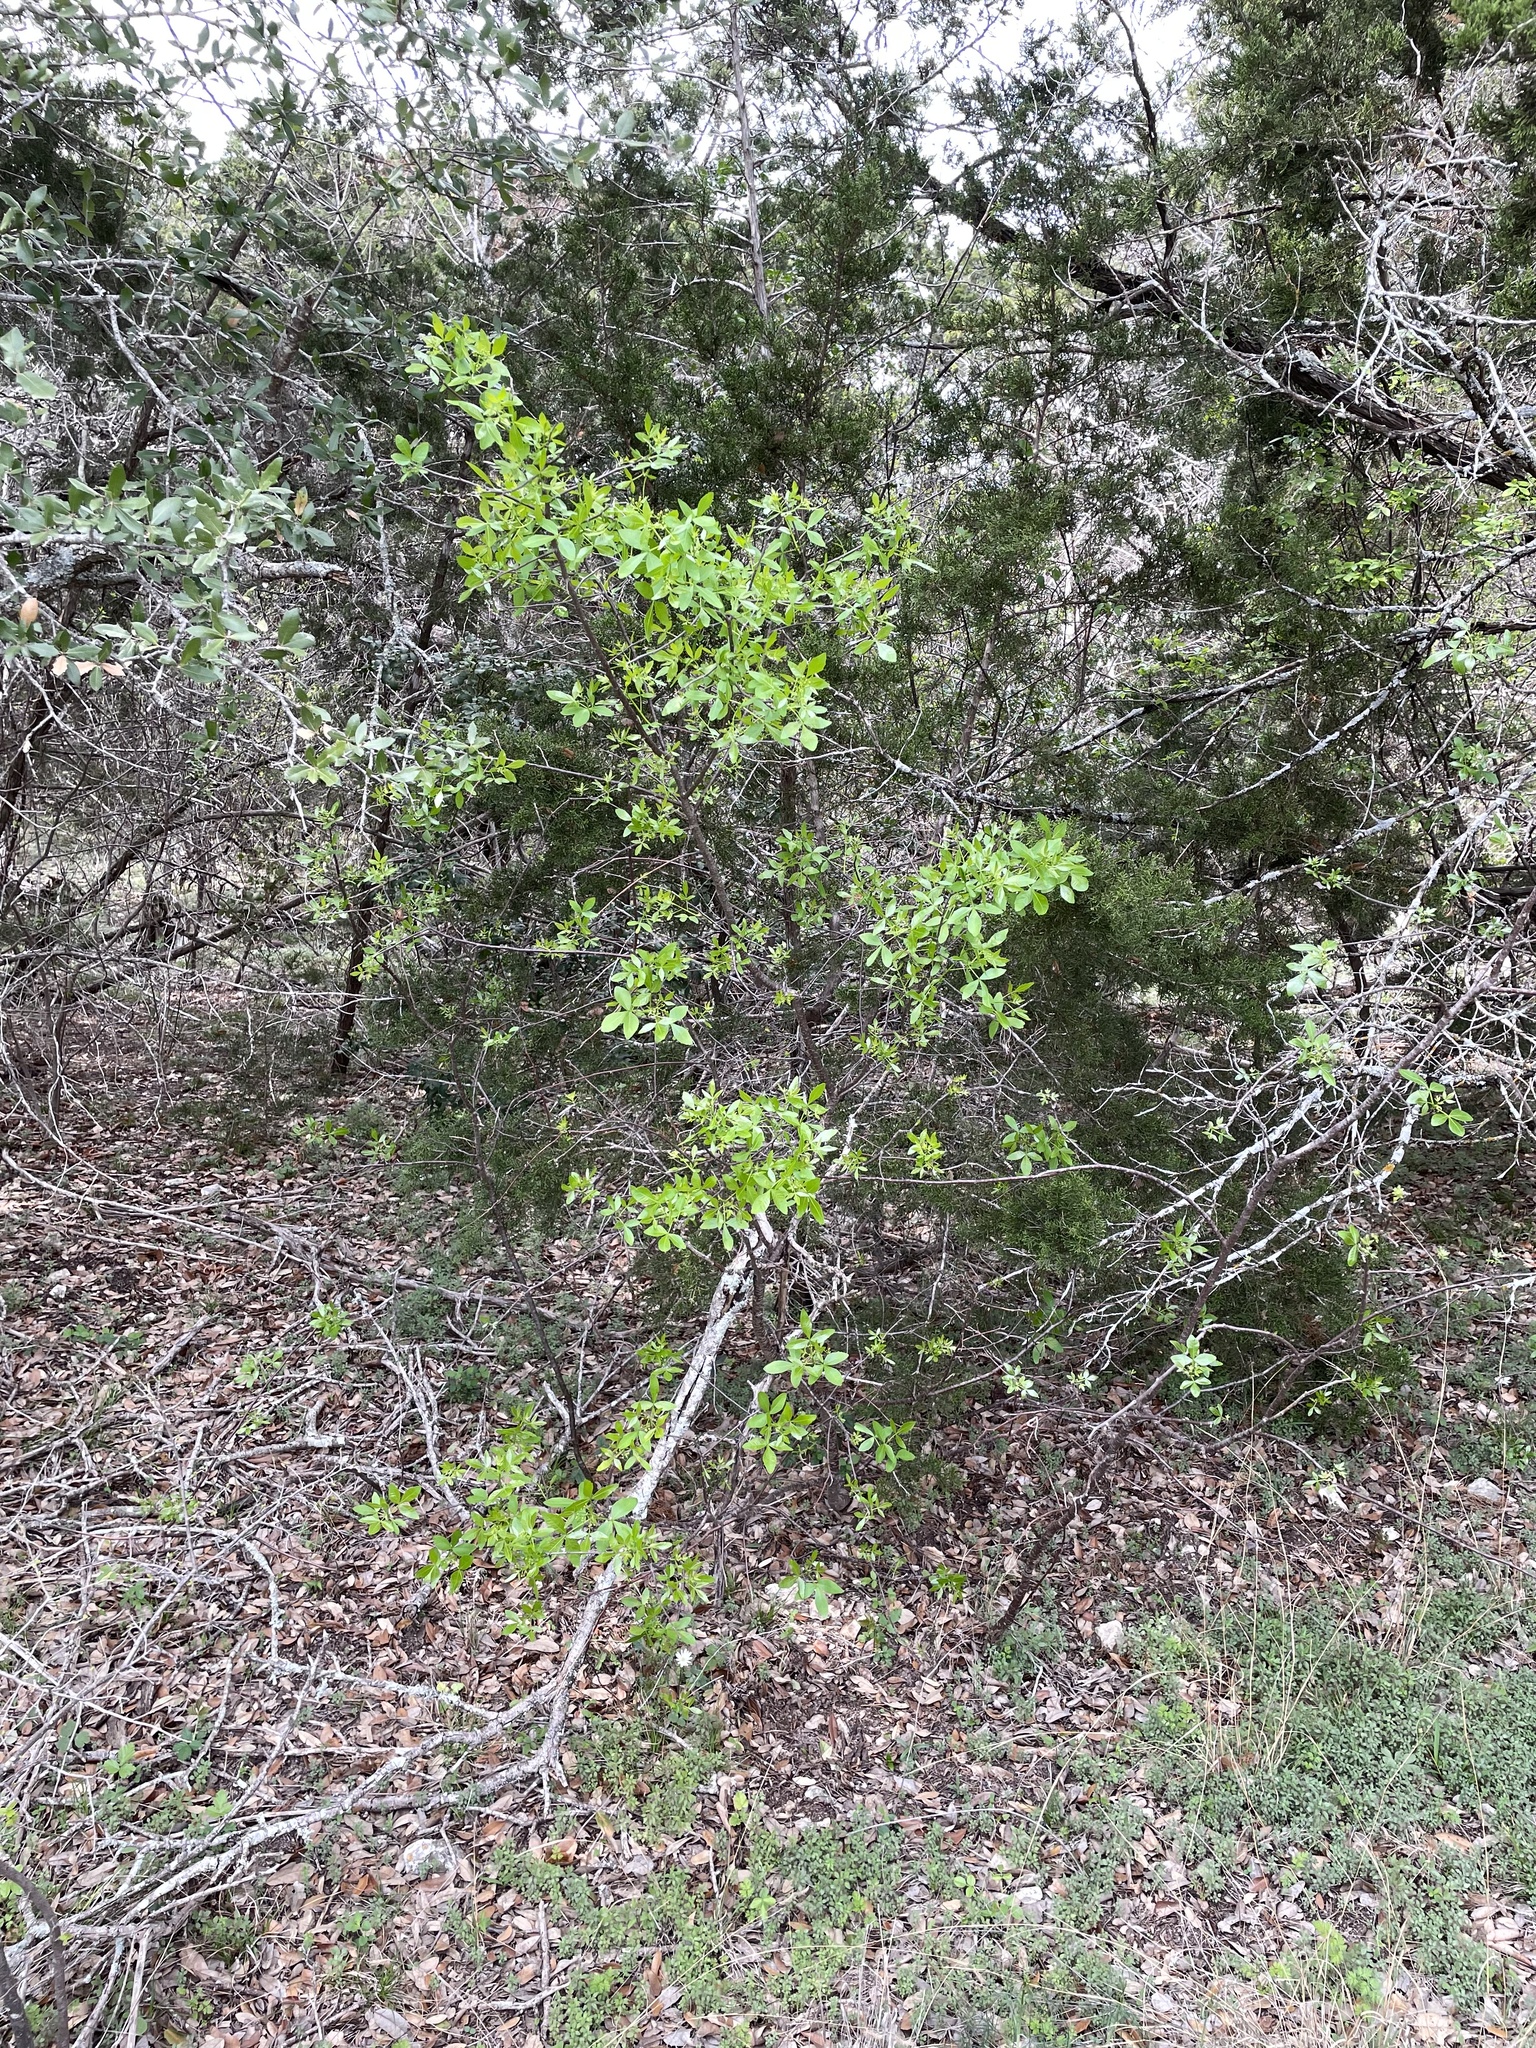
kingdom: Plantae
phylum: Tracheophyta
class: Magnoliopsida
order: Sapindales
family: Rutaceae
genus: Ptelea
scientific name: Ptelea trifoliata
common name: Common hop-tree
